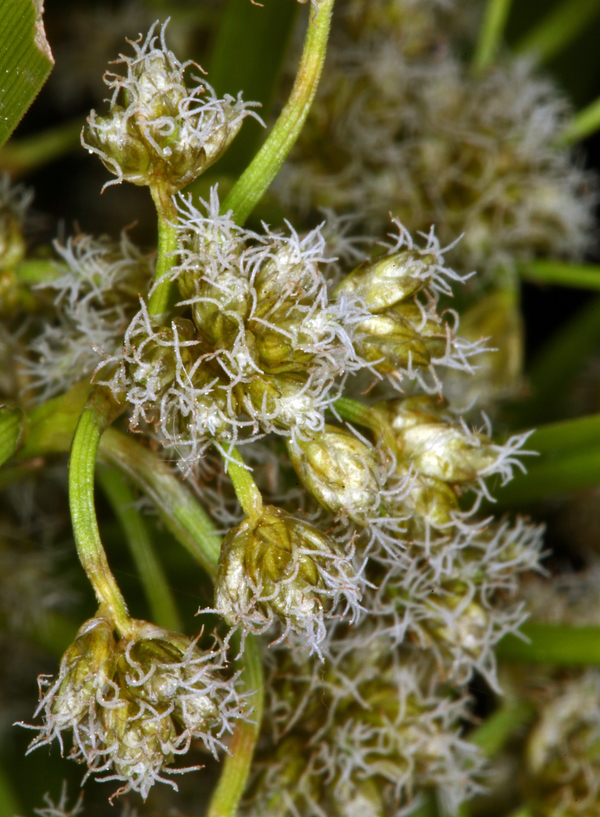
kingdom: Plantae
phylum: Tracheophyta
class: Liliopsida
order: Poales
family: Cyperaceae
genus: Scirpus
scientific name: Scirpus microcarpus
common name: Panicled bulrush
